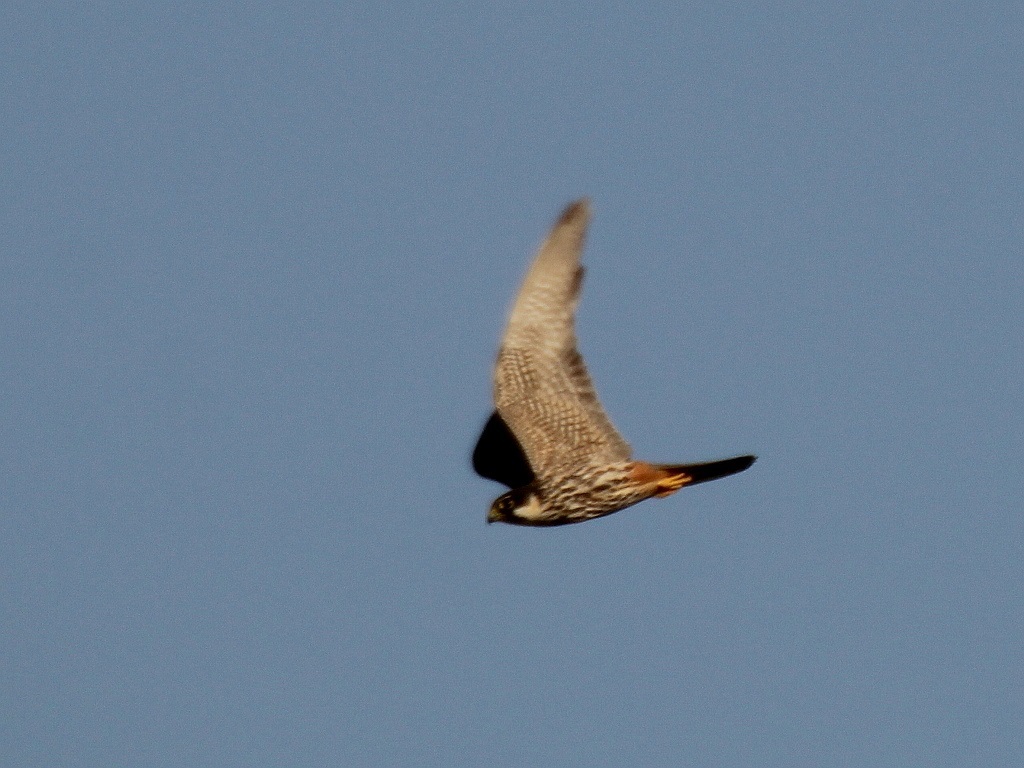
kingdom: Animalia
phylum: Chordata
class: Aves
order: Falconiformes
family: Falconidae
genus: Falco
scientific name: Falco subbuteo
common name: Eurasian hobby
